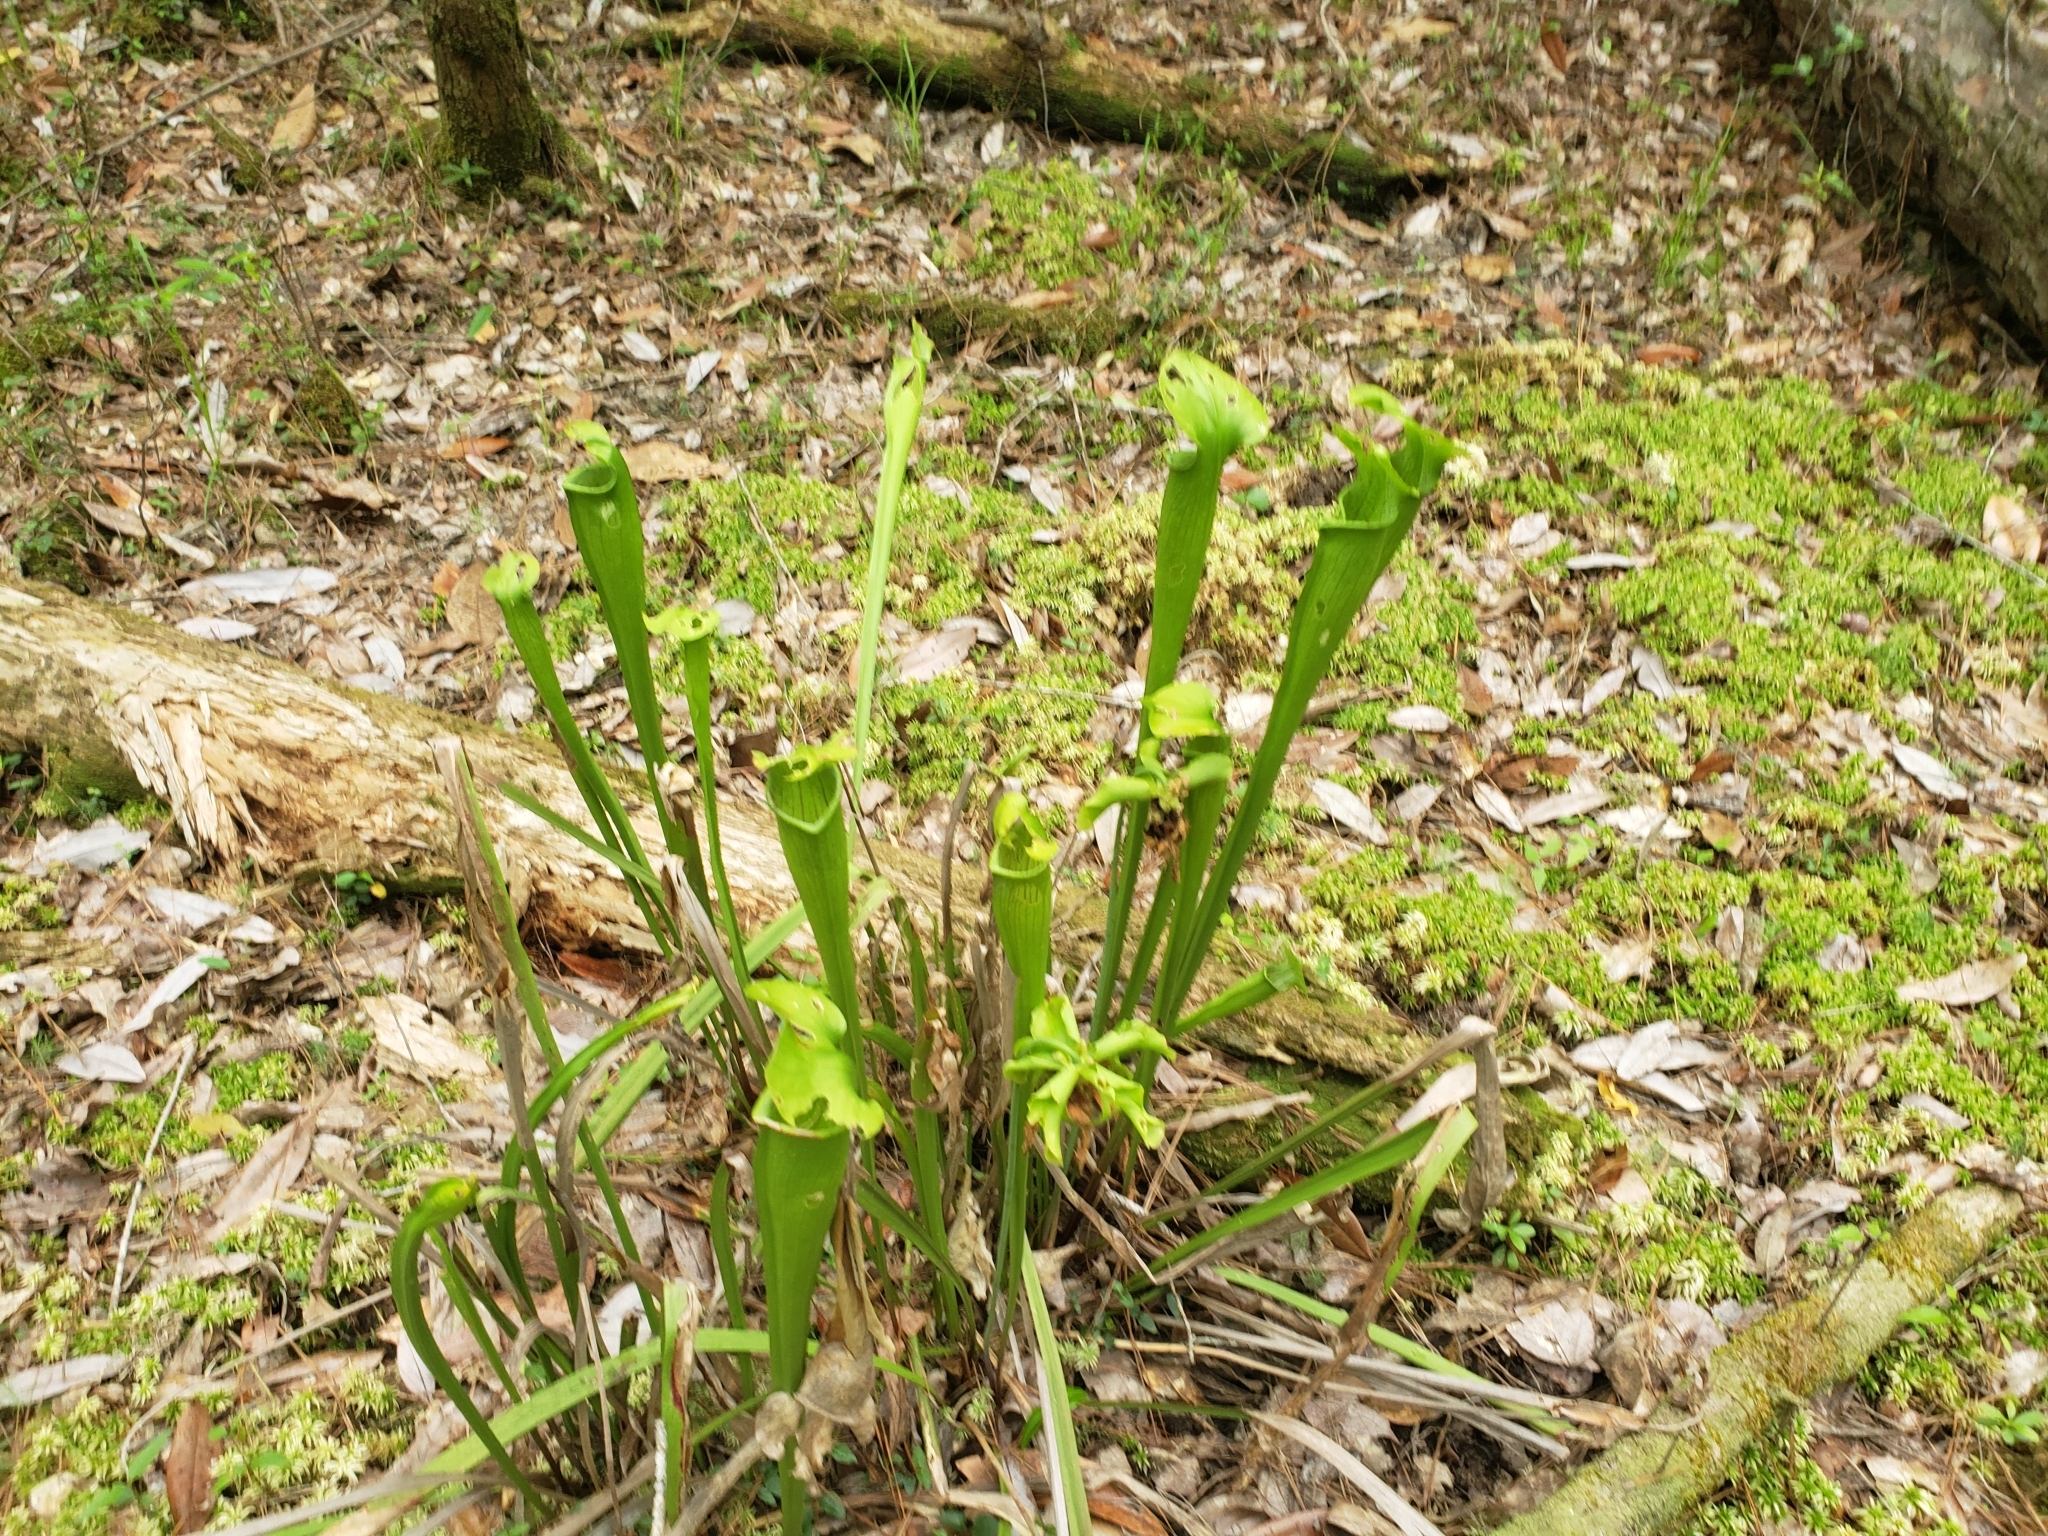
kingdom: Plantae
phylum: Tracheophyta
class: Magnoliopsida
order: Ericales
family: Sarraceniaceae
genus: Sarracenia
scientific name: Sarracenia alata
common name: Yellow trumpets
